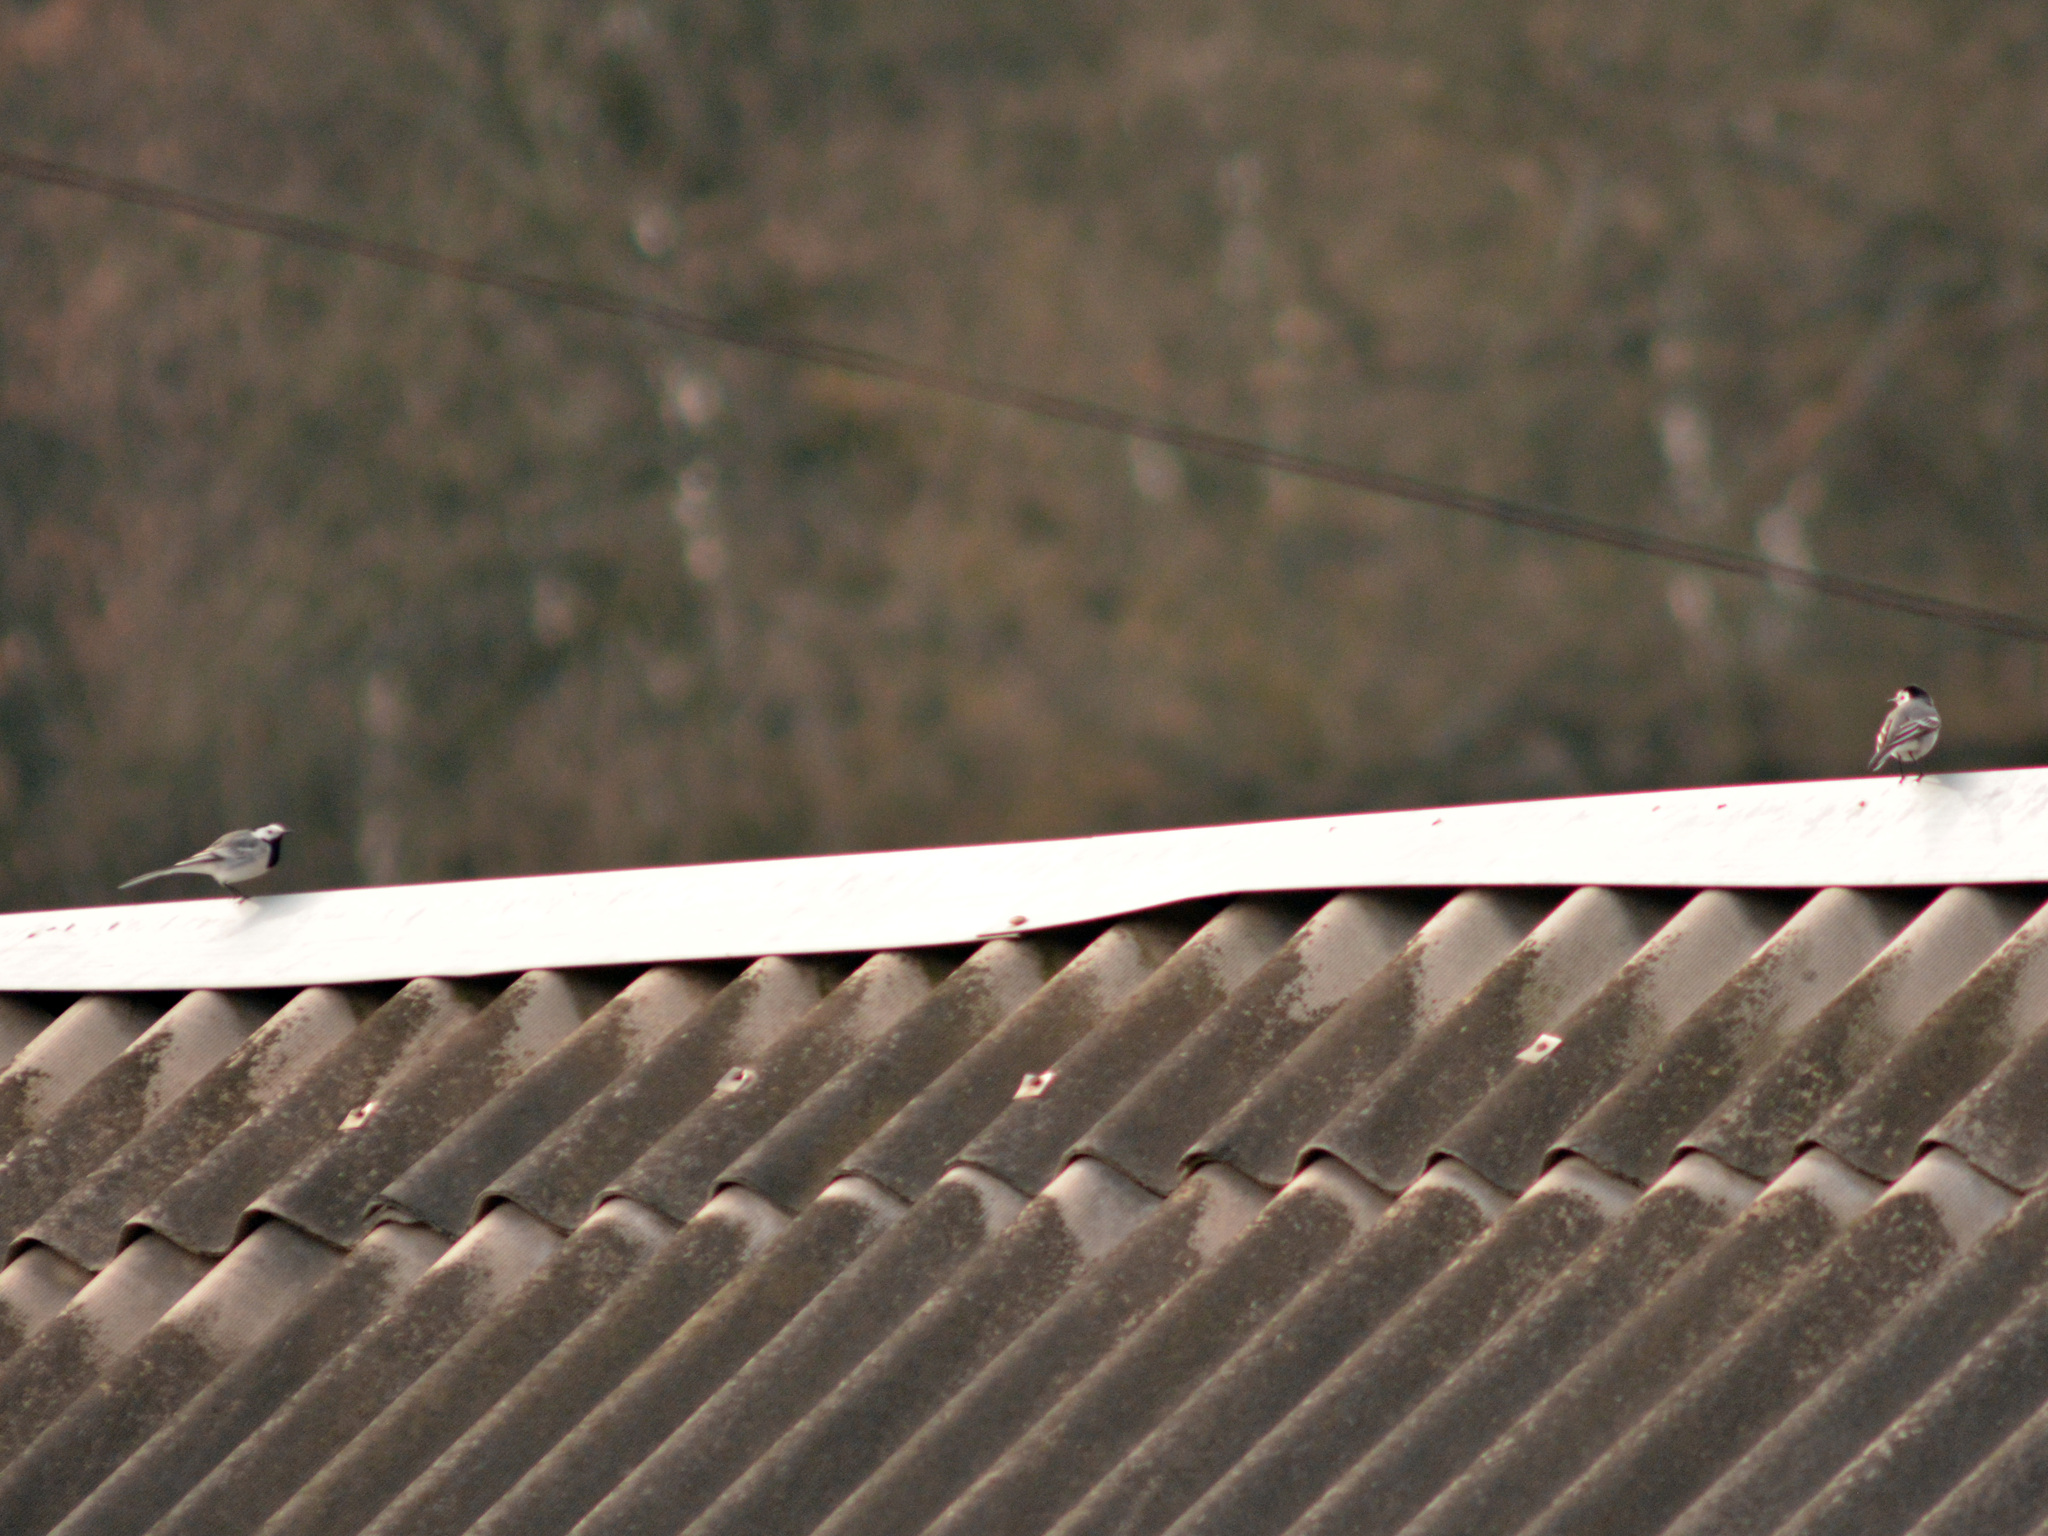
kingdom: Animalia
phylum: Chordata
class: Aves
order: Passeriformes
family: Motacillidae
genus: Motacilla
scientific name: Motacilla alba
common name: White wagtail
